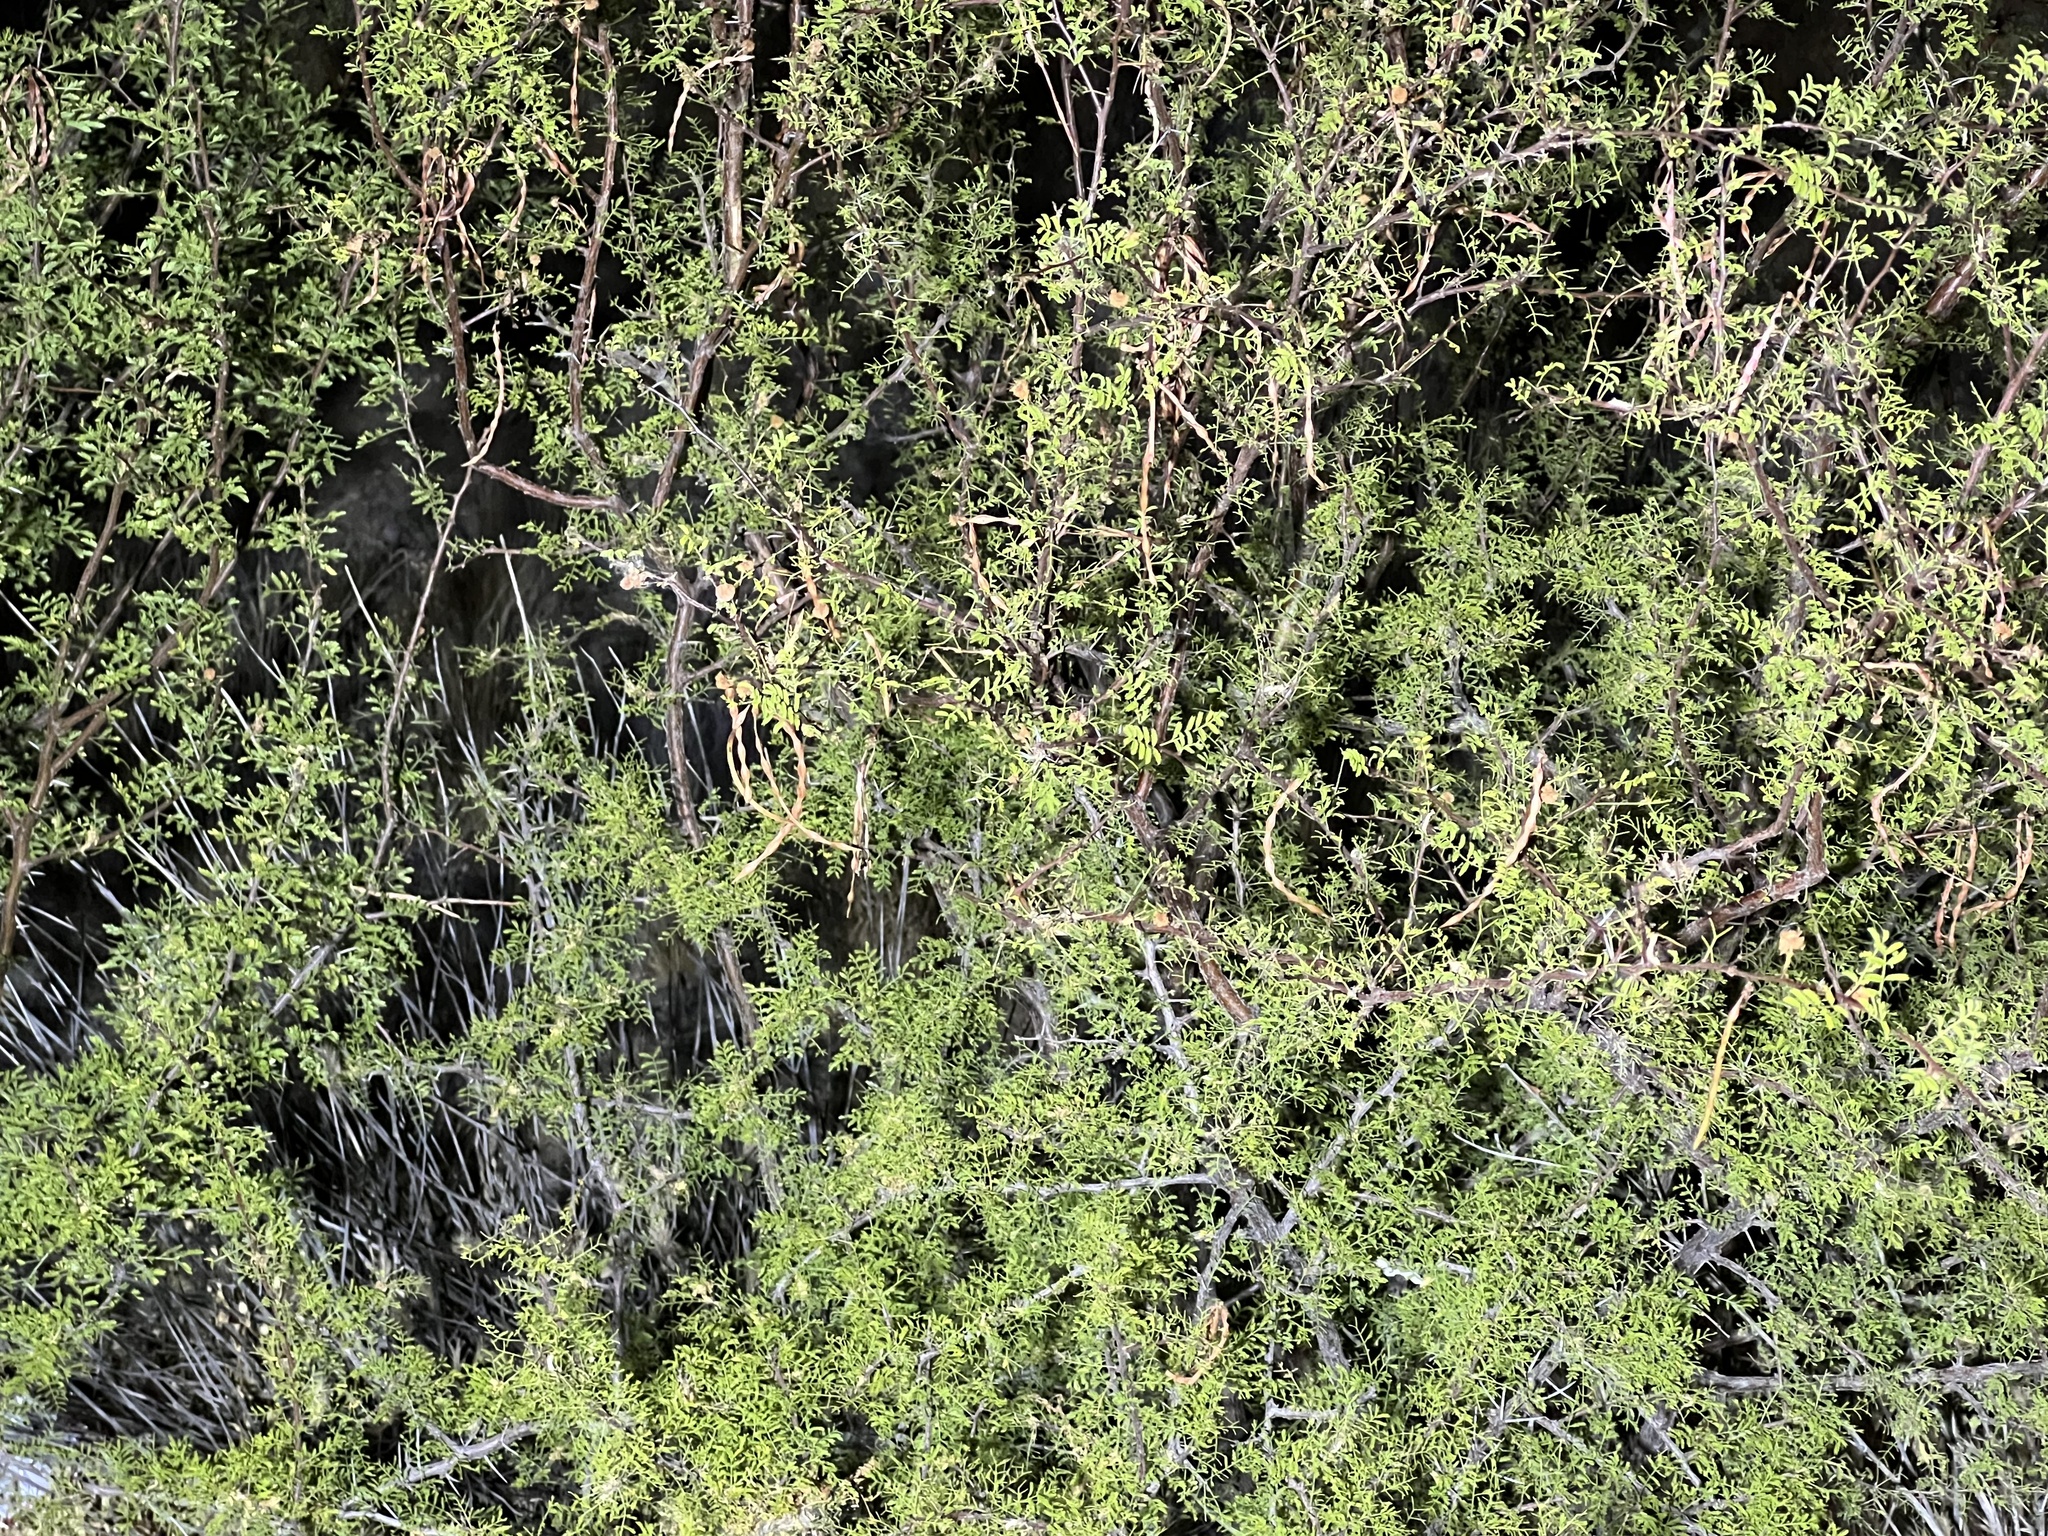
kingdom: Plantae
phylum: Tracheophyta
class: Magnoliopsida
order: Fabales
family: Fabaceae
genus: Vachellia
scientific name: Vachellia constricta
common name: Mescat acacia
